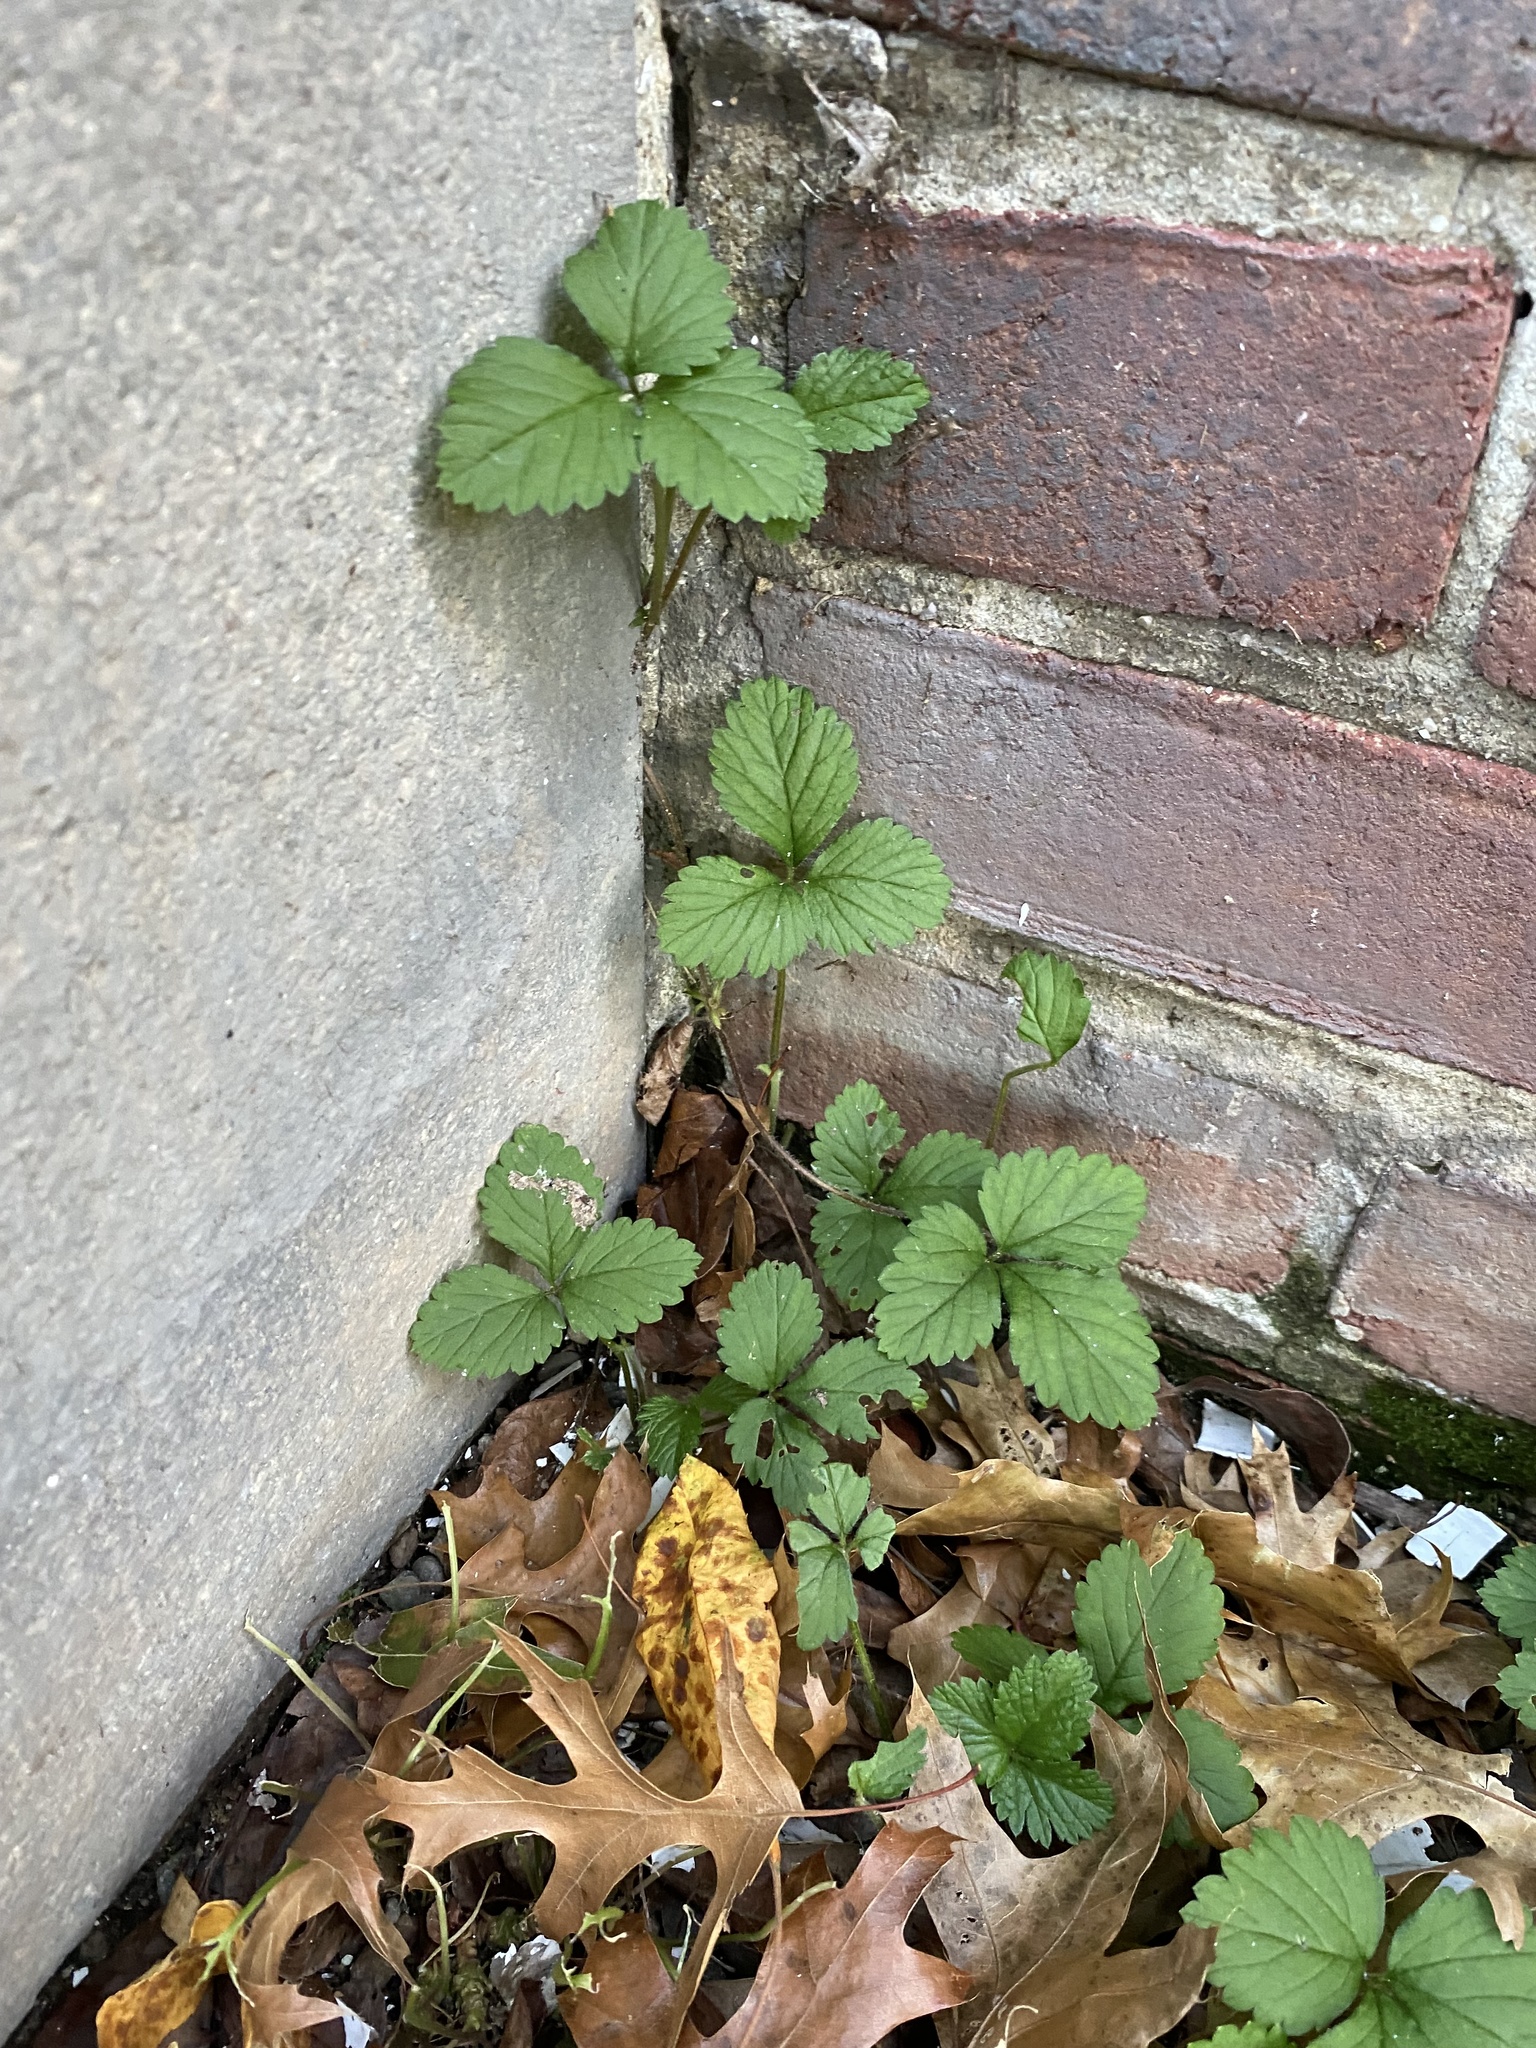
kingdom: Plantae
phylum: Tracheophyta
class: Magnoliopsida
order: Rosales
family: Rosaceae
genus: Potentilla
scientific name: Potentilla indica
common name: Yellow-flowered strawberry
